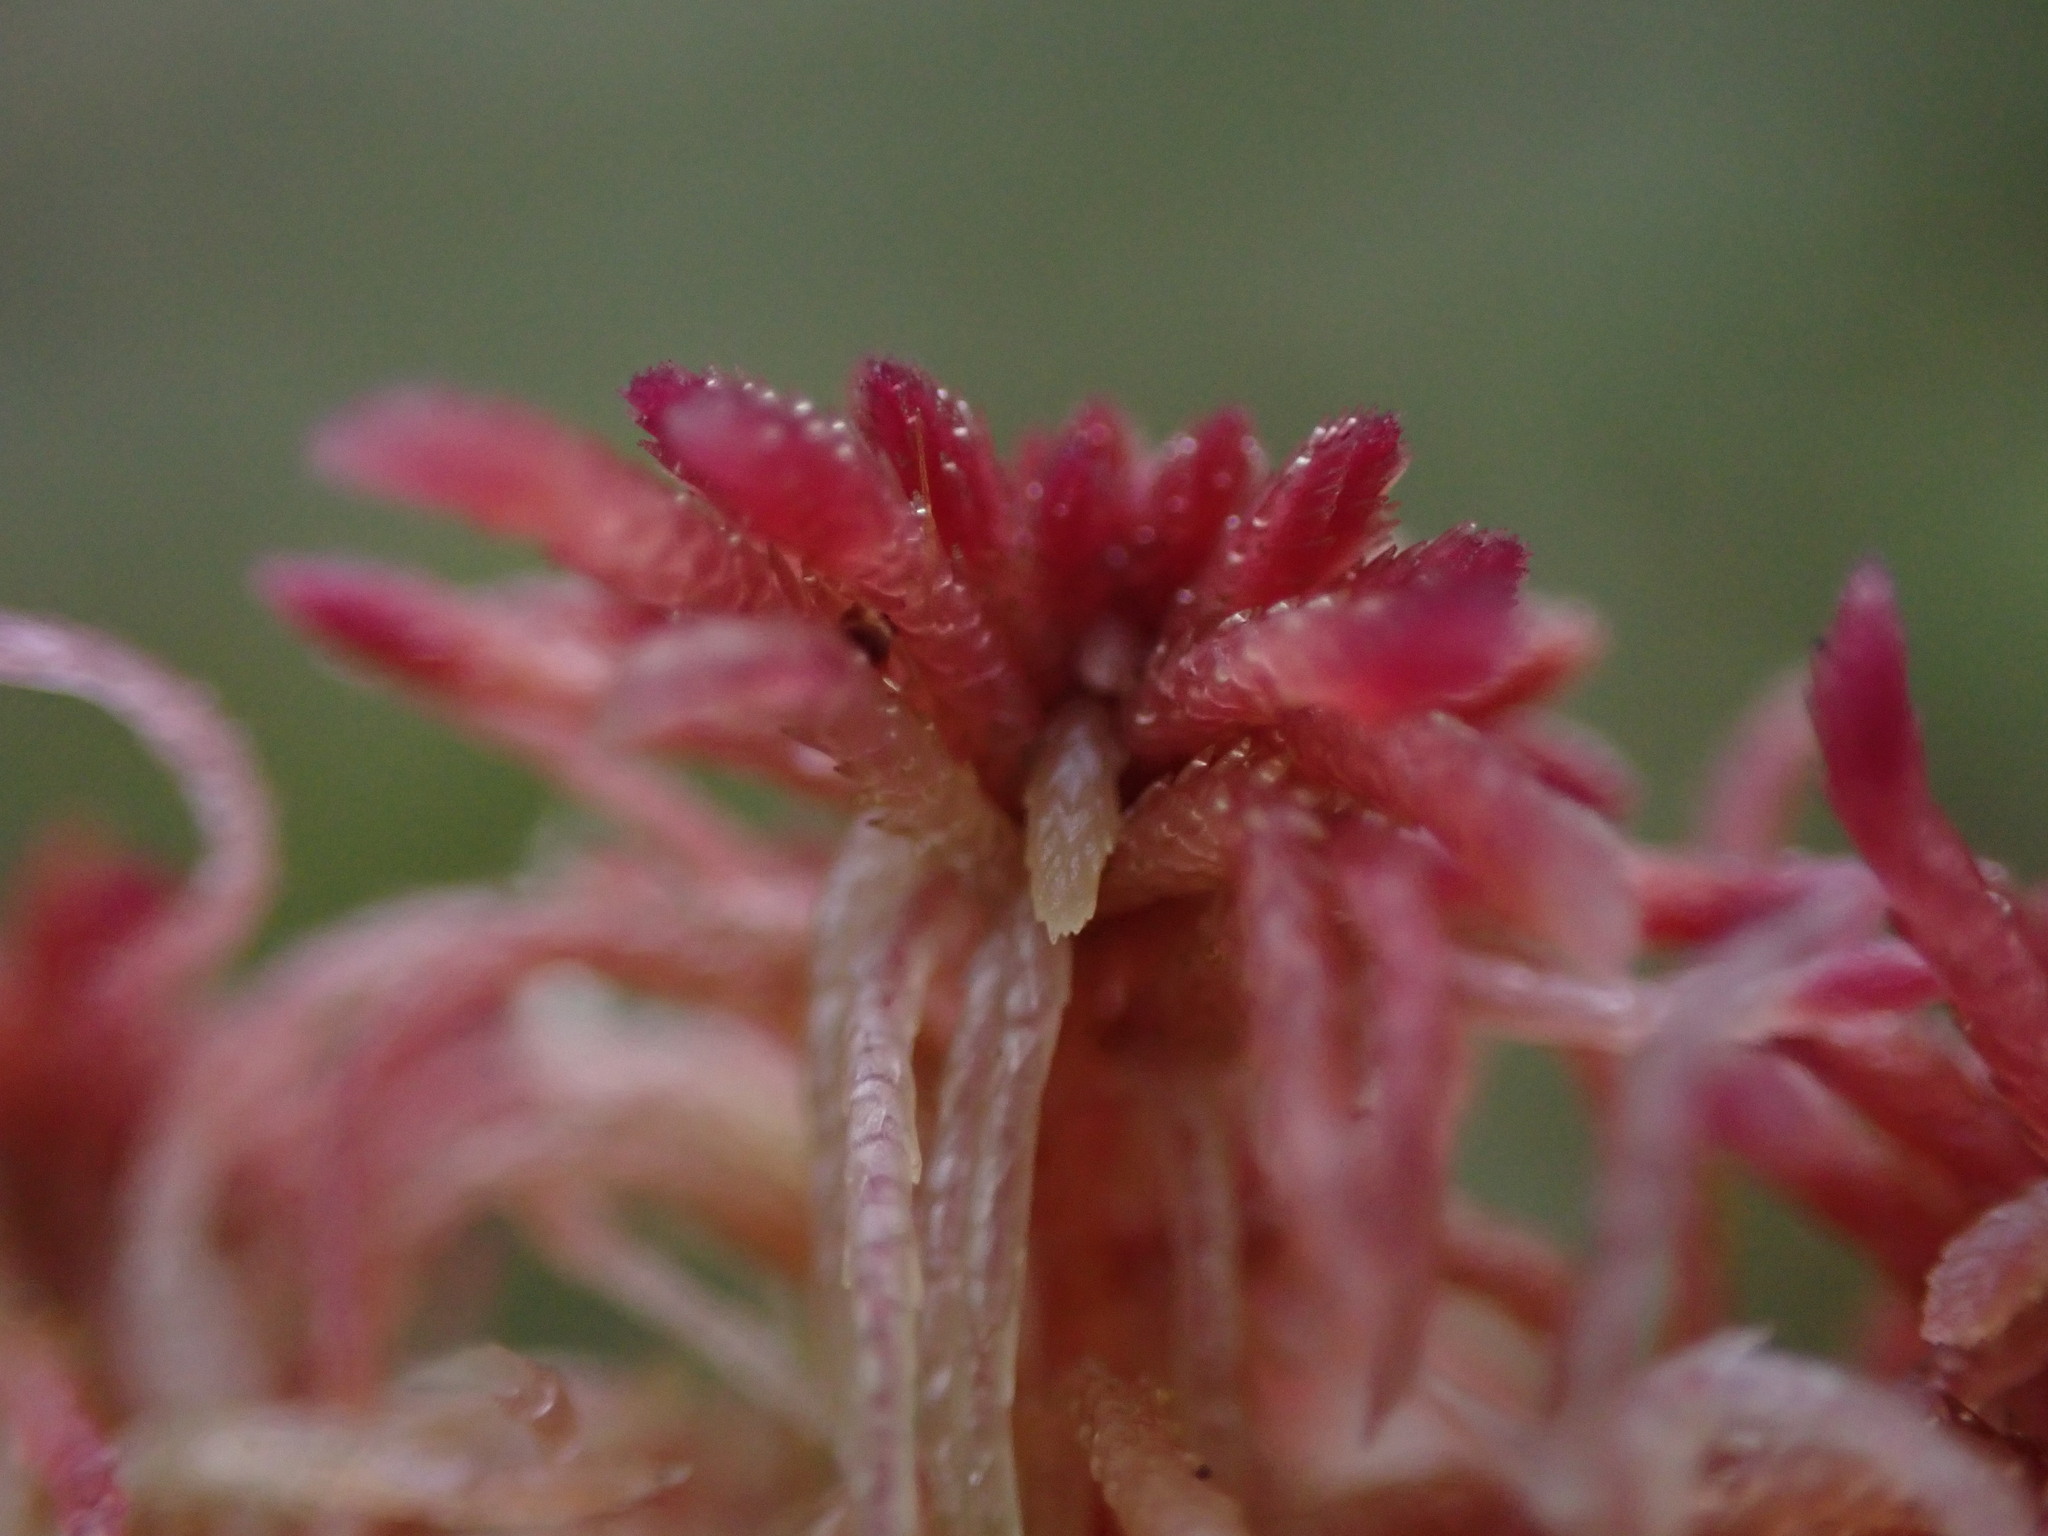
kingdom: Plantae
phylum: Bryophyta
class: Sphagnopsida
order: Sphagnales
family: Sphagnaceae
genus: Sphagnum
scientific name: Sphagnum warnstorfii
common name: Warnstorf's peat moss
